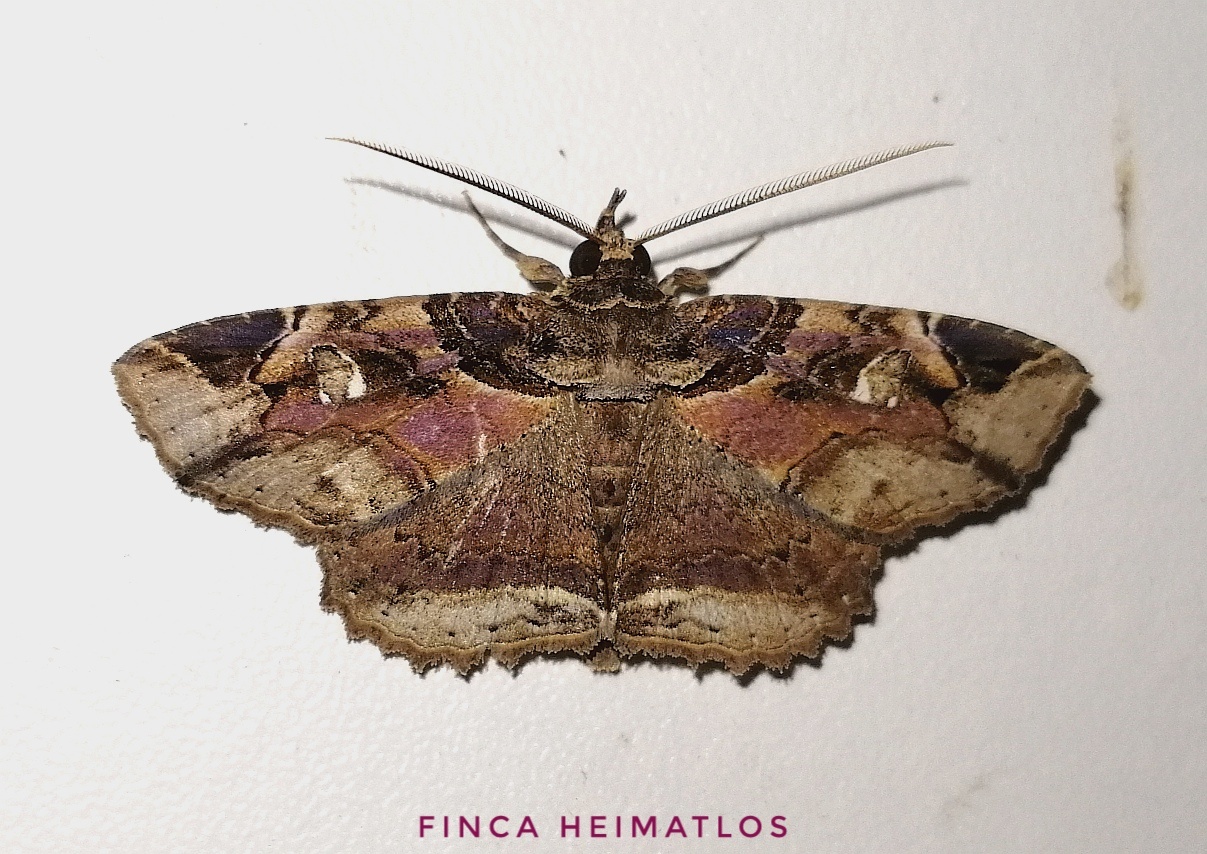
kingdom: Animalia
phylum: Arthropoda
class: Insecta
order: Lepidoptera
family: Erebidae
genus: Peteroma
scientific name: Peteroma denticulata
